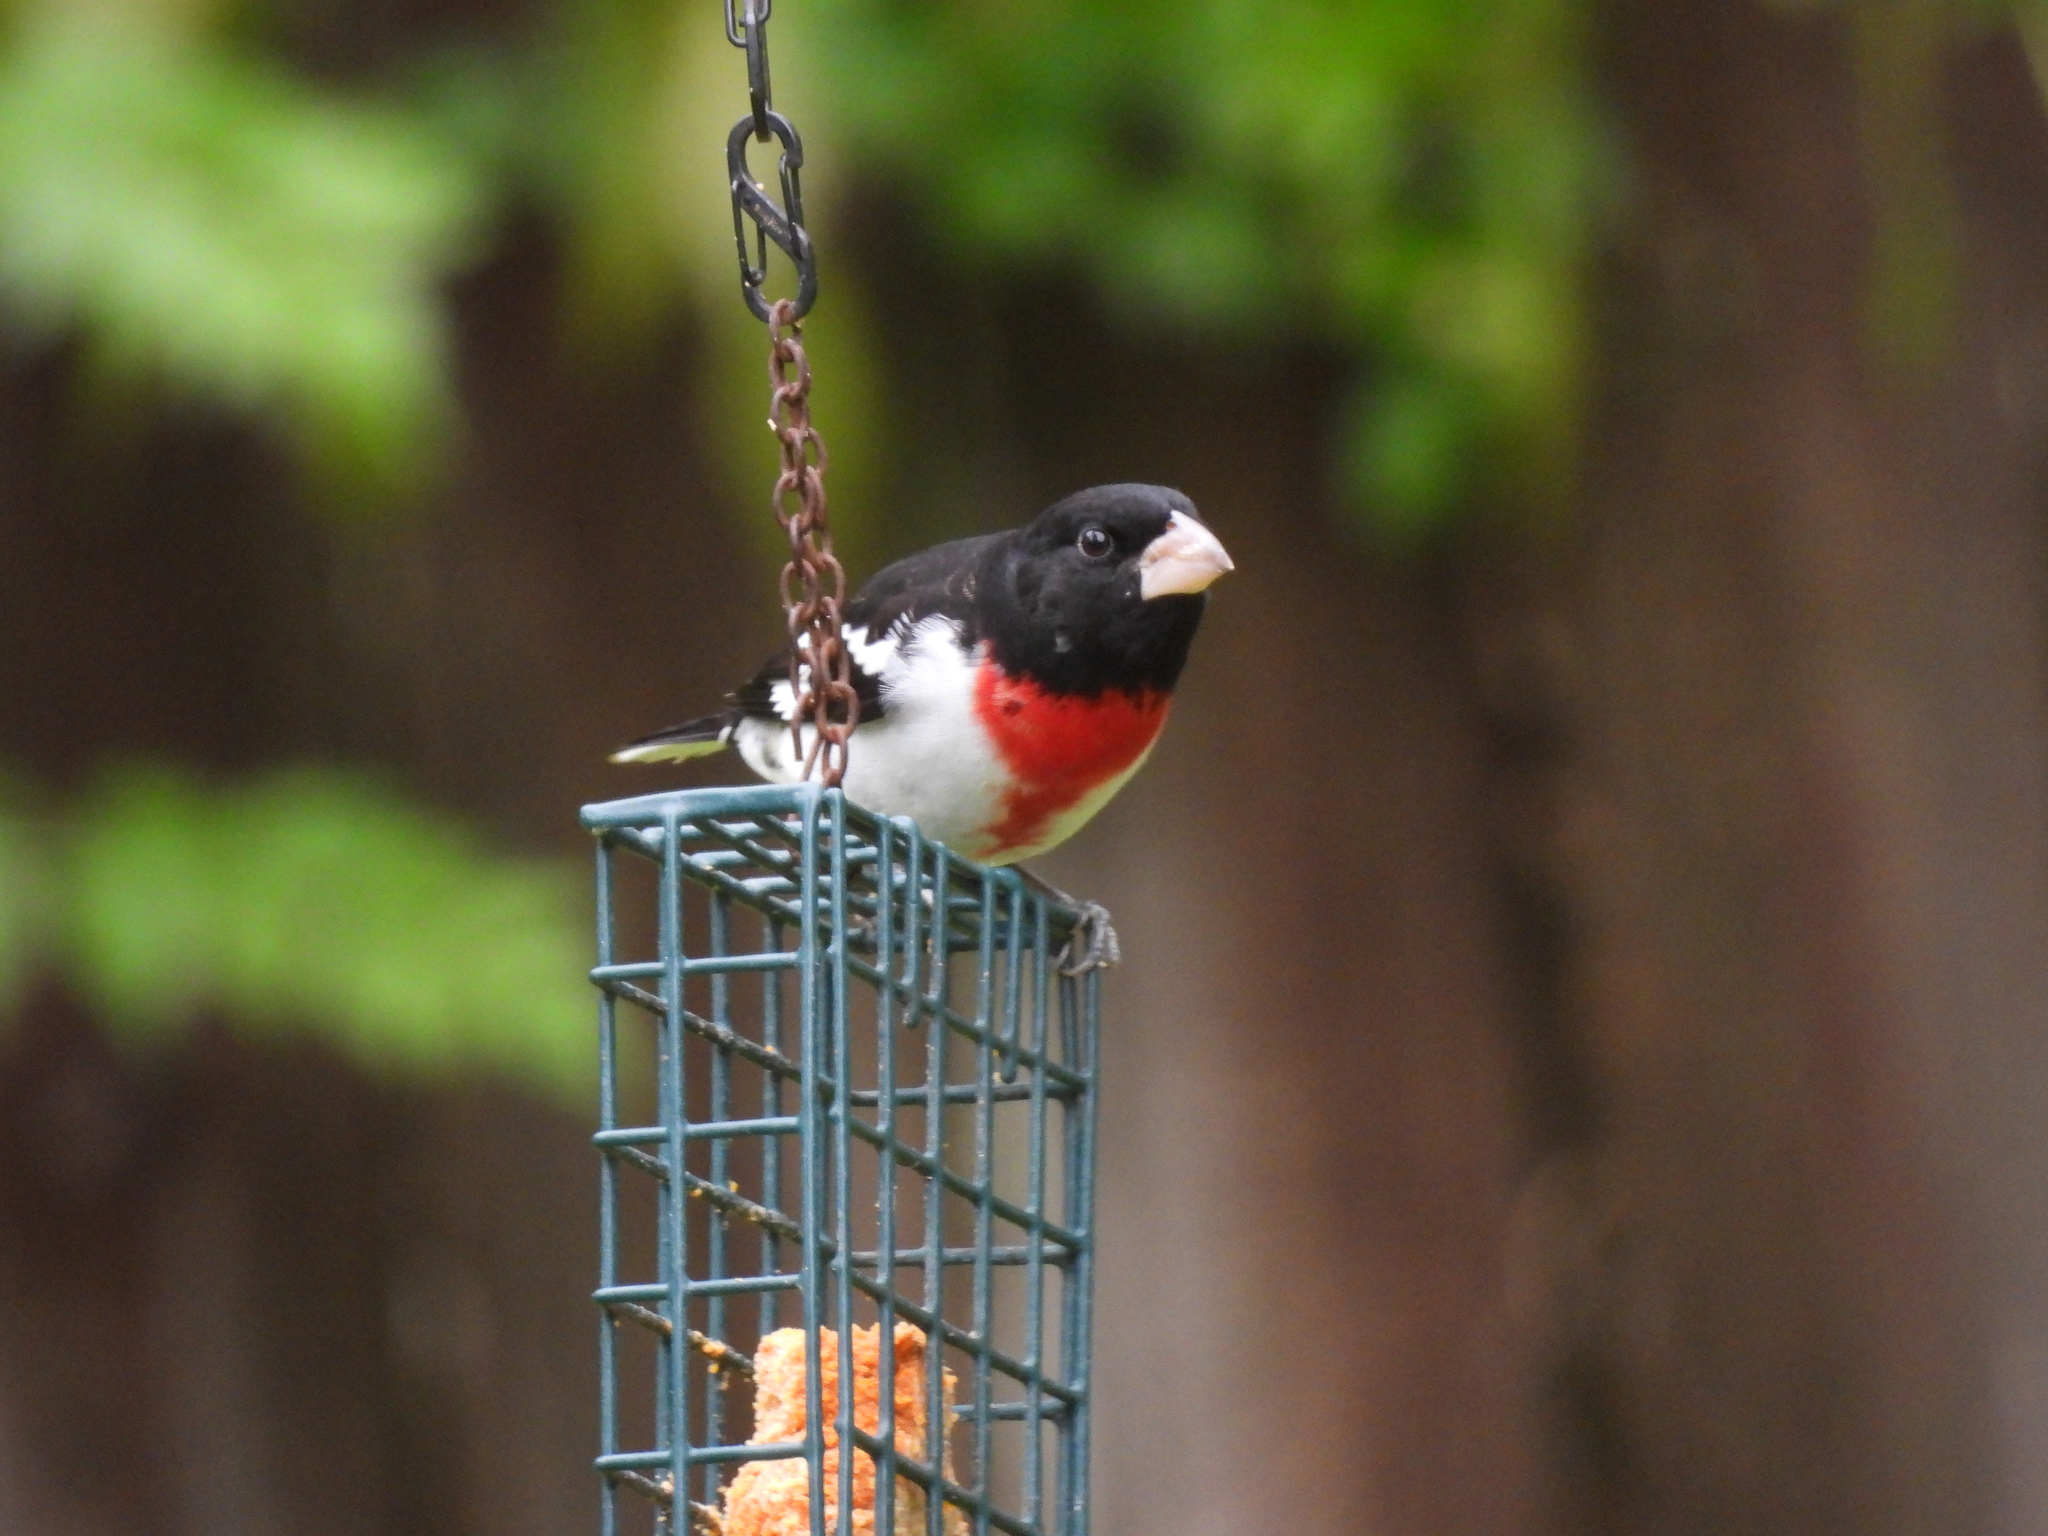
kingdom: Animalia
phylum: Chordata
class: Aves
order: Passeriformes
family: Cardinalidae
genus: Pheucticus
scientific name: Pheucticus ludovicianus
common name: Rose-breasted grosbeak
